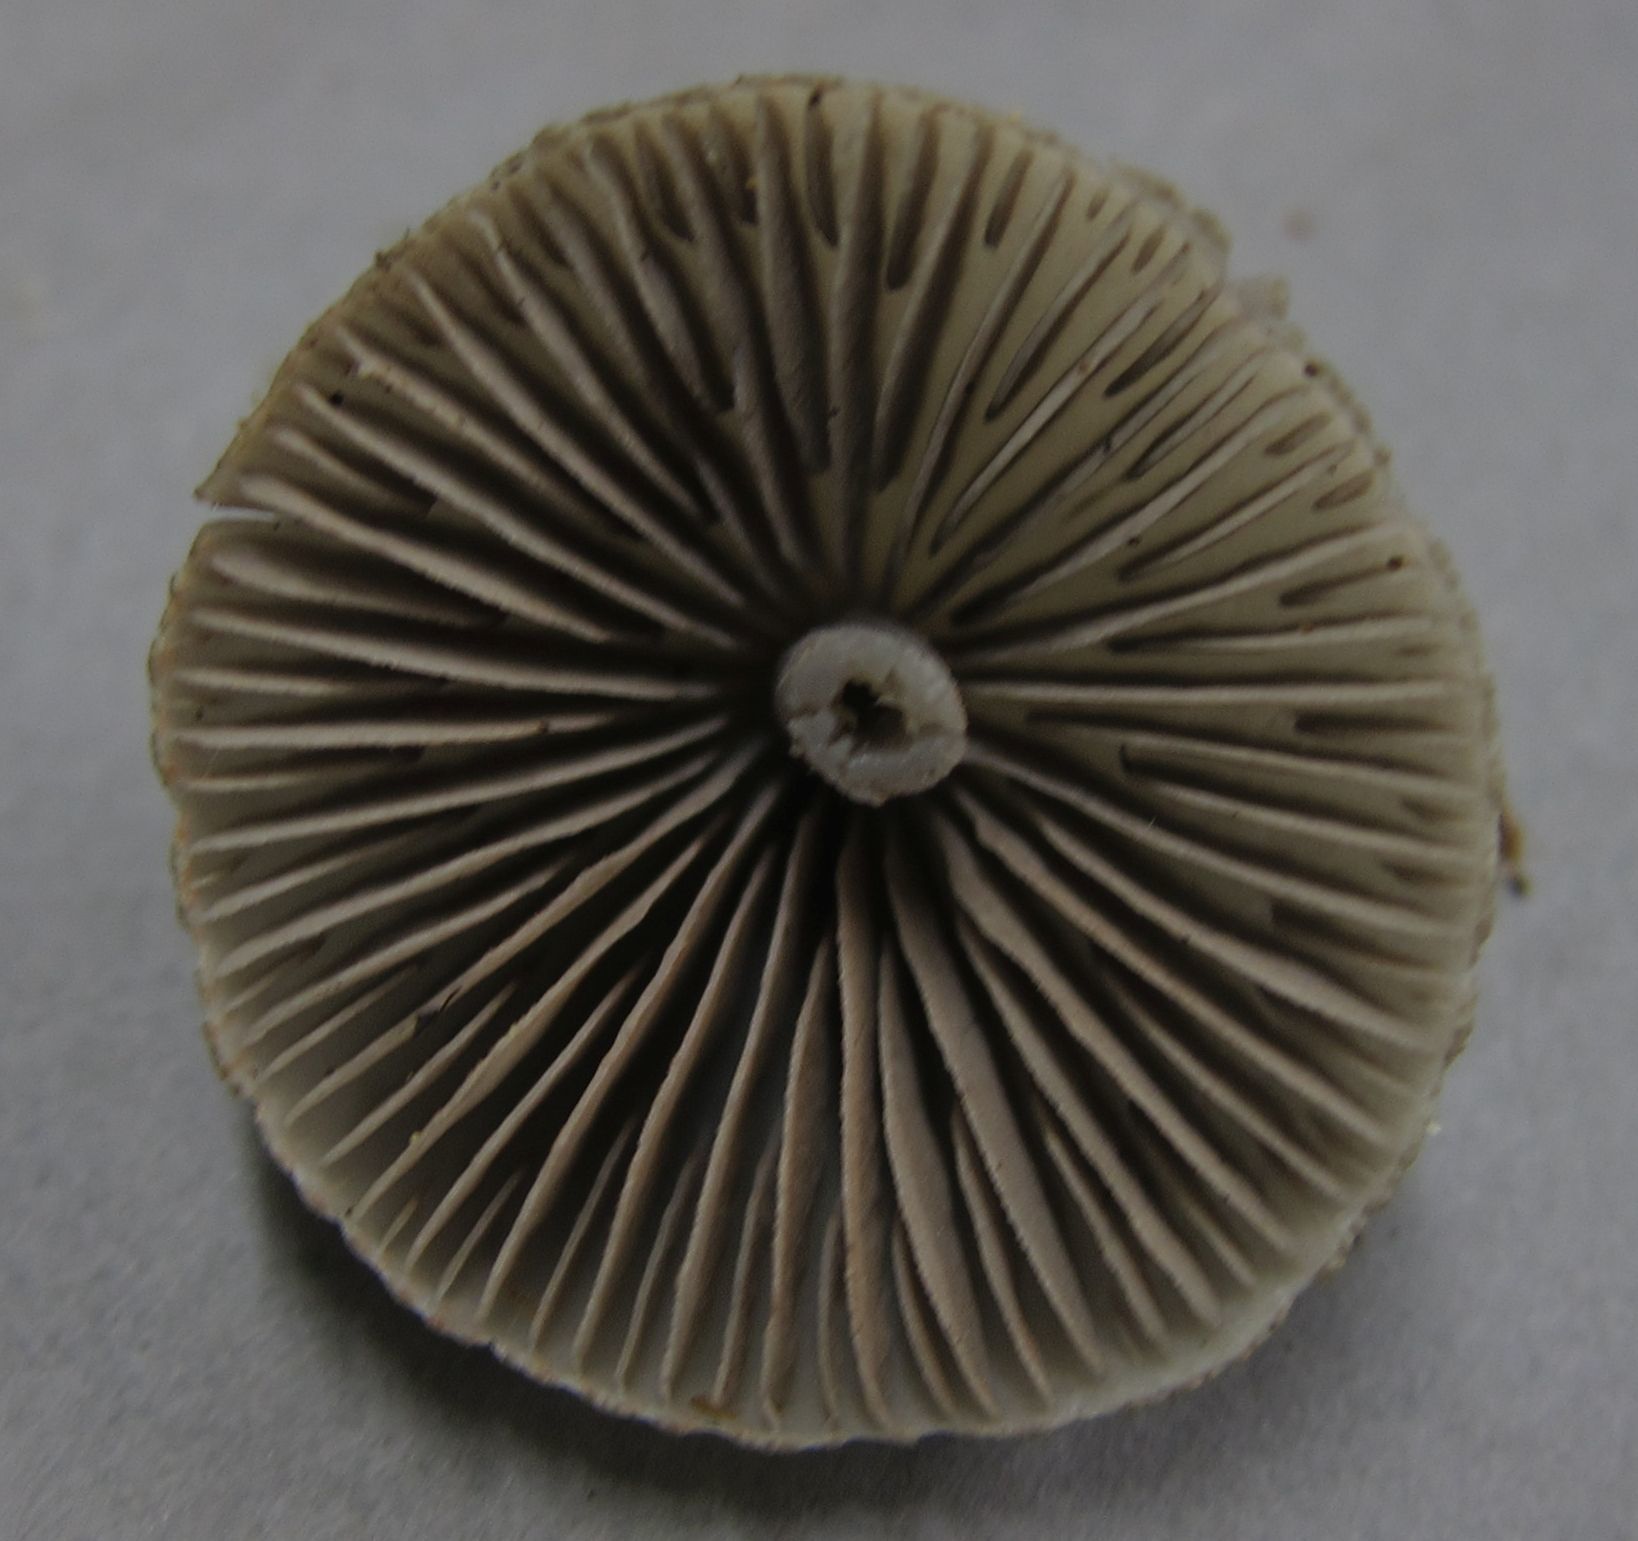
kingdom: Fungi
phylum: Basidiomycota
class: Agaricomycetes
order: Agaricales
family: Entolomataceae
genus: Entoloma
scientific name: Entoloma canoconicum
